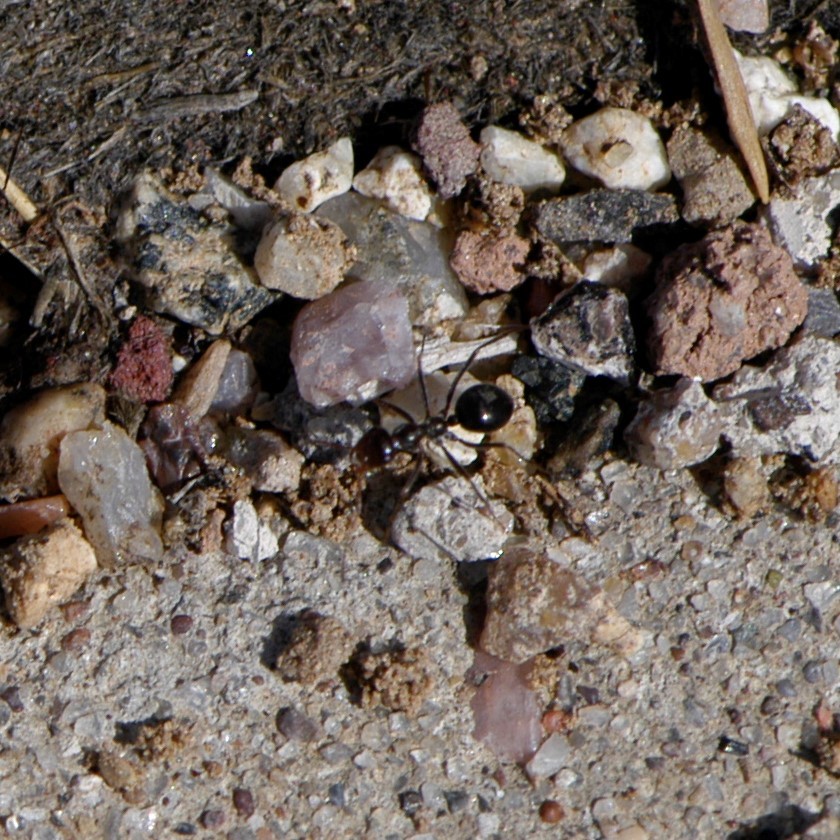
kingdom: Animalia
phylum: Arthropoda
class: Insecta
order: Hymenoptera
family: Formicidae
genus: Endiodioctes
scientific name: Endiodioctes
